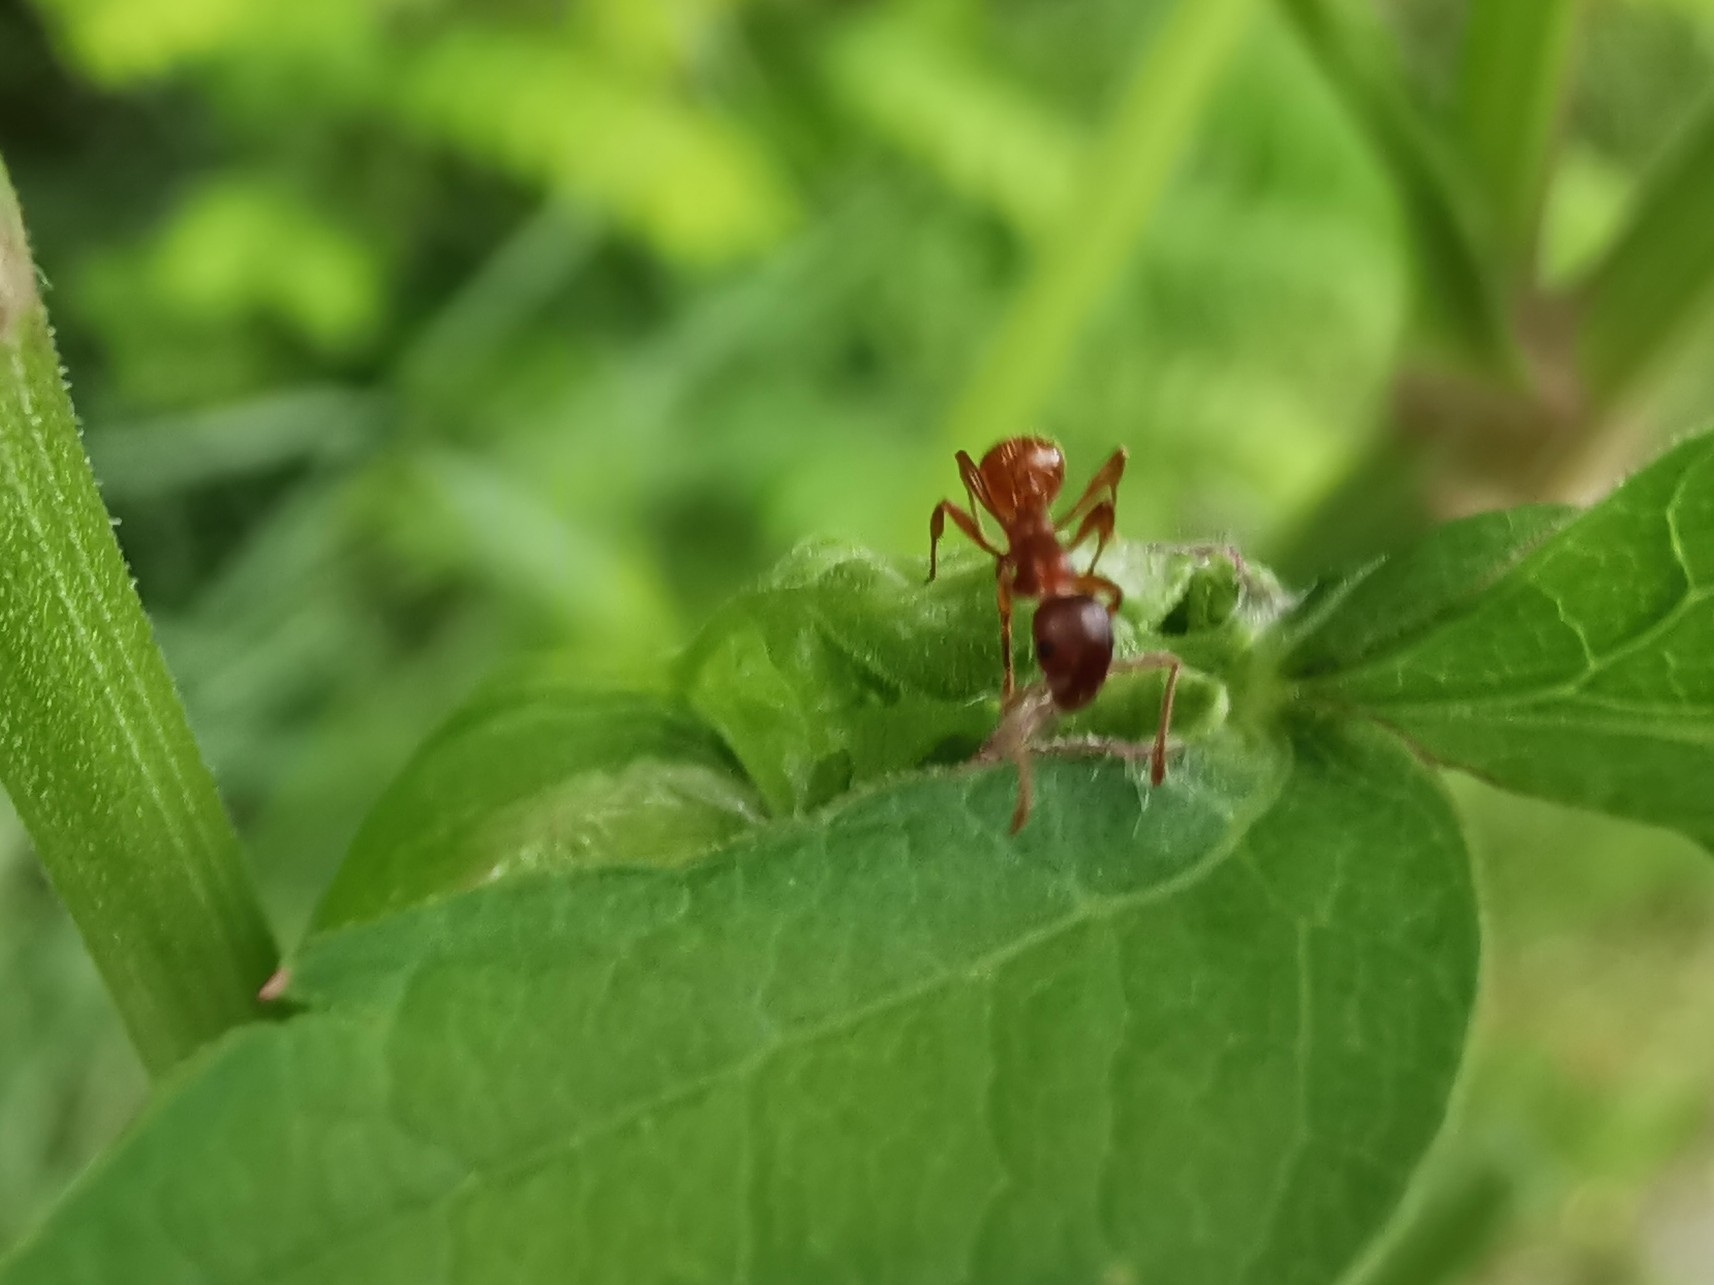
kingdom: Animalia
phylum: Arthropoda
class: Insecta
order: Hymenoptera
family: Formicidae
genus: Myrmica
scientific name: Myrmica rubra
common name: European fire ant
